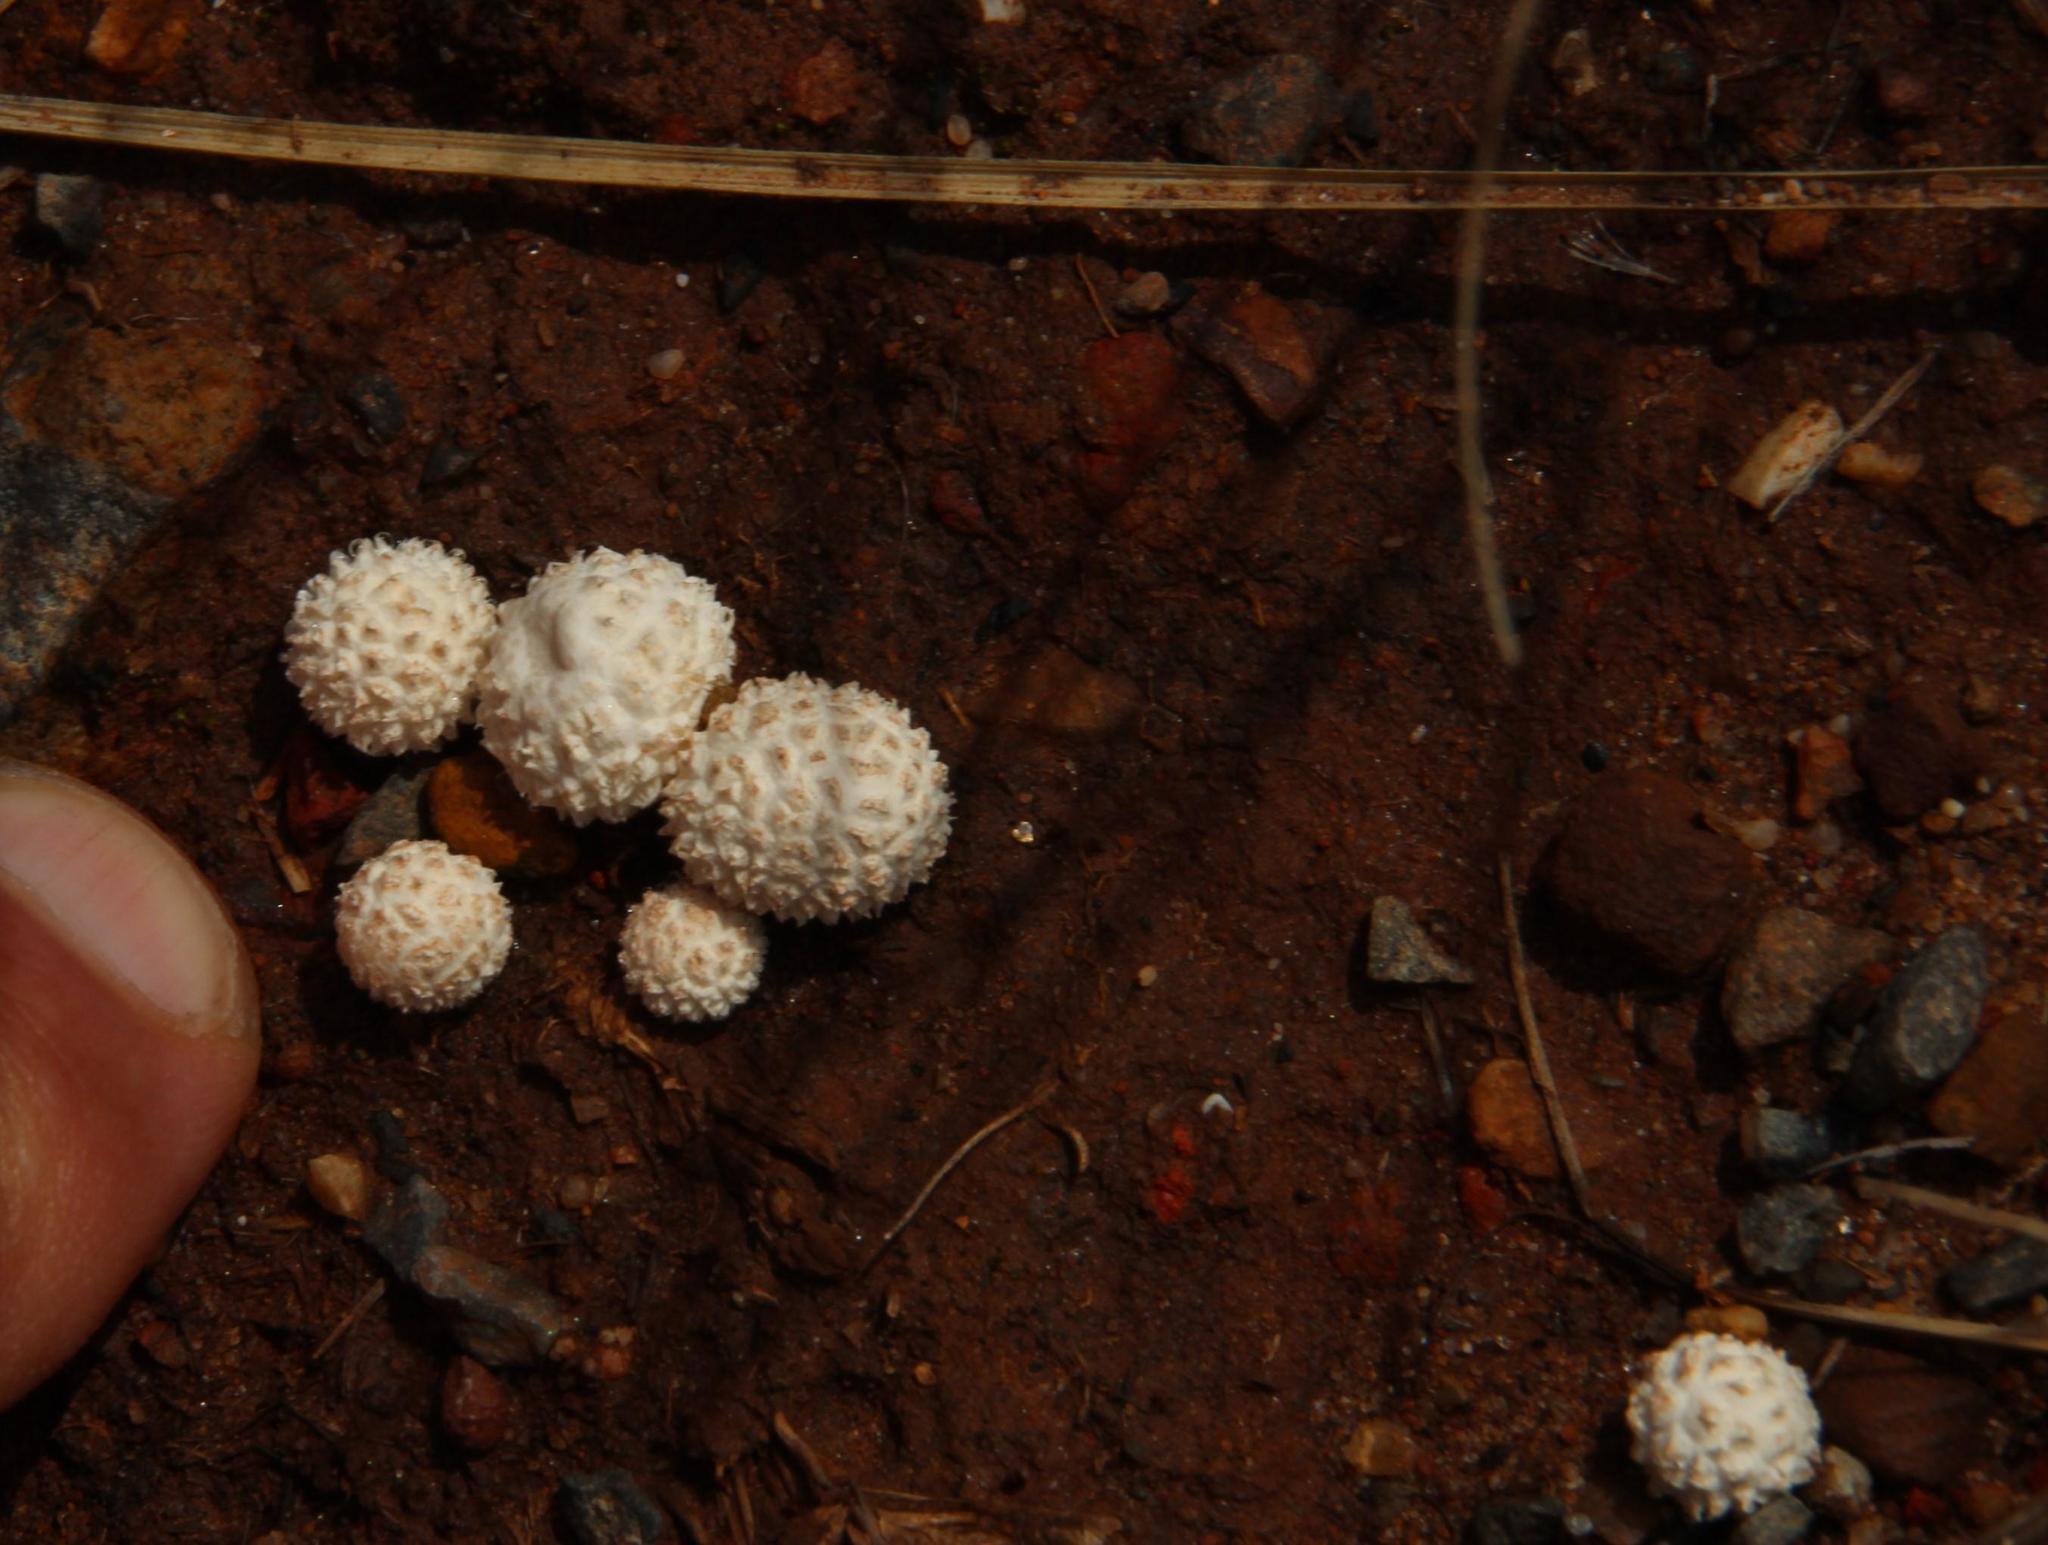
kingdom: Fungi
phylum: Basidiomycota
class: Agaricomycetes
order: Agaricales
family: Lycoperdaceae
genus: Lycoperdon
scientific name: Lycoperdon pratense
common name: Meadow puffball
